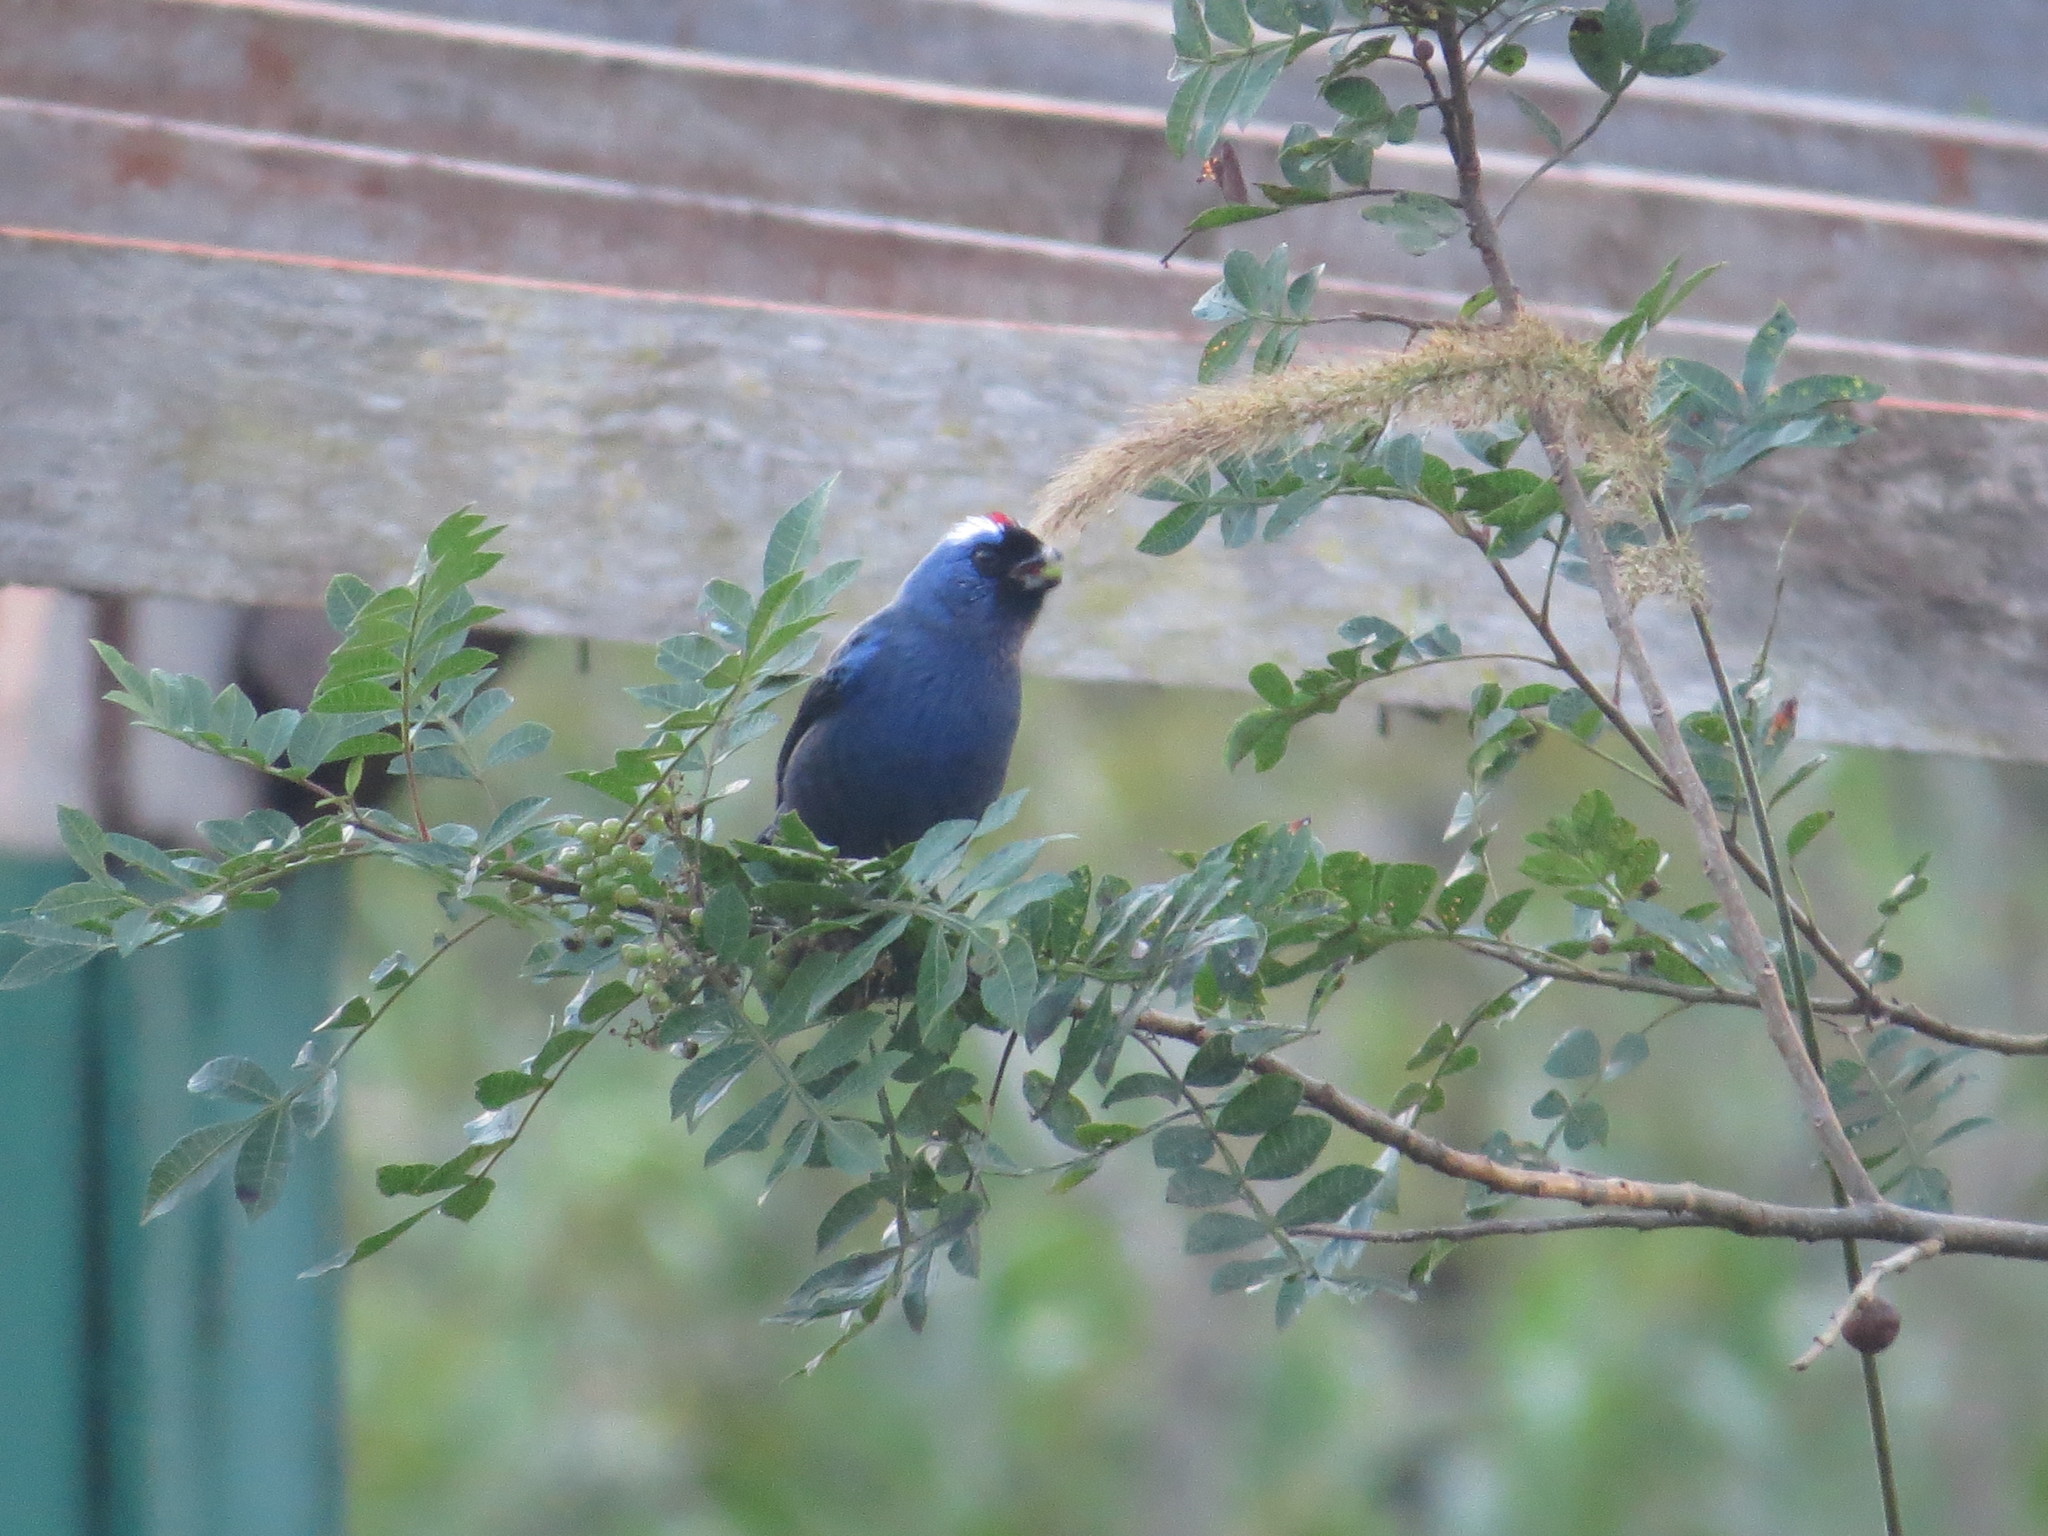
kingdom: Animalia
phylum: Chordata
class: Aves
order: Passeriformes
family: Thraupidae
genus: Stephanophorus
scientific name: Stephanophorus diadematus
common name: Diademed tanager
